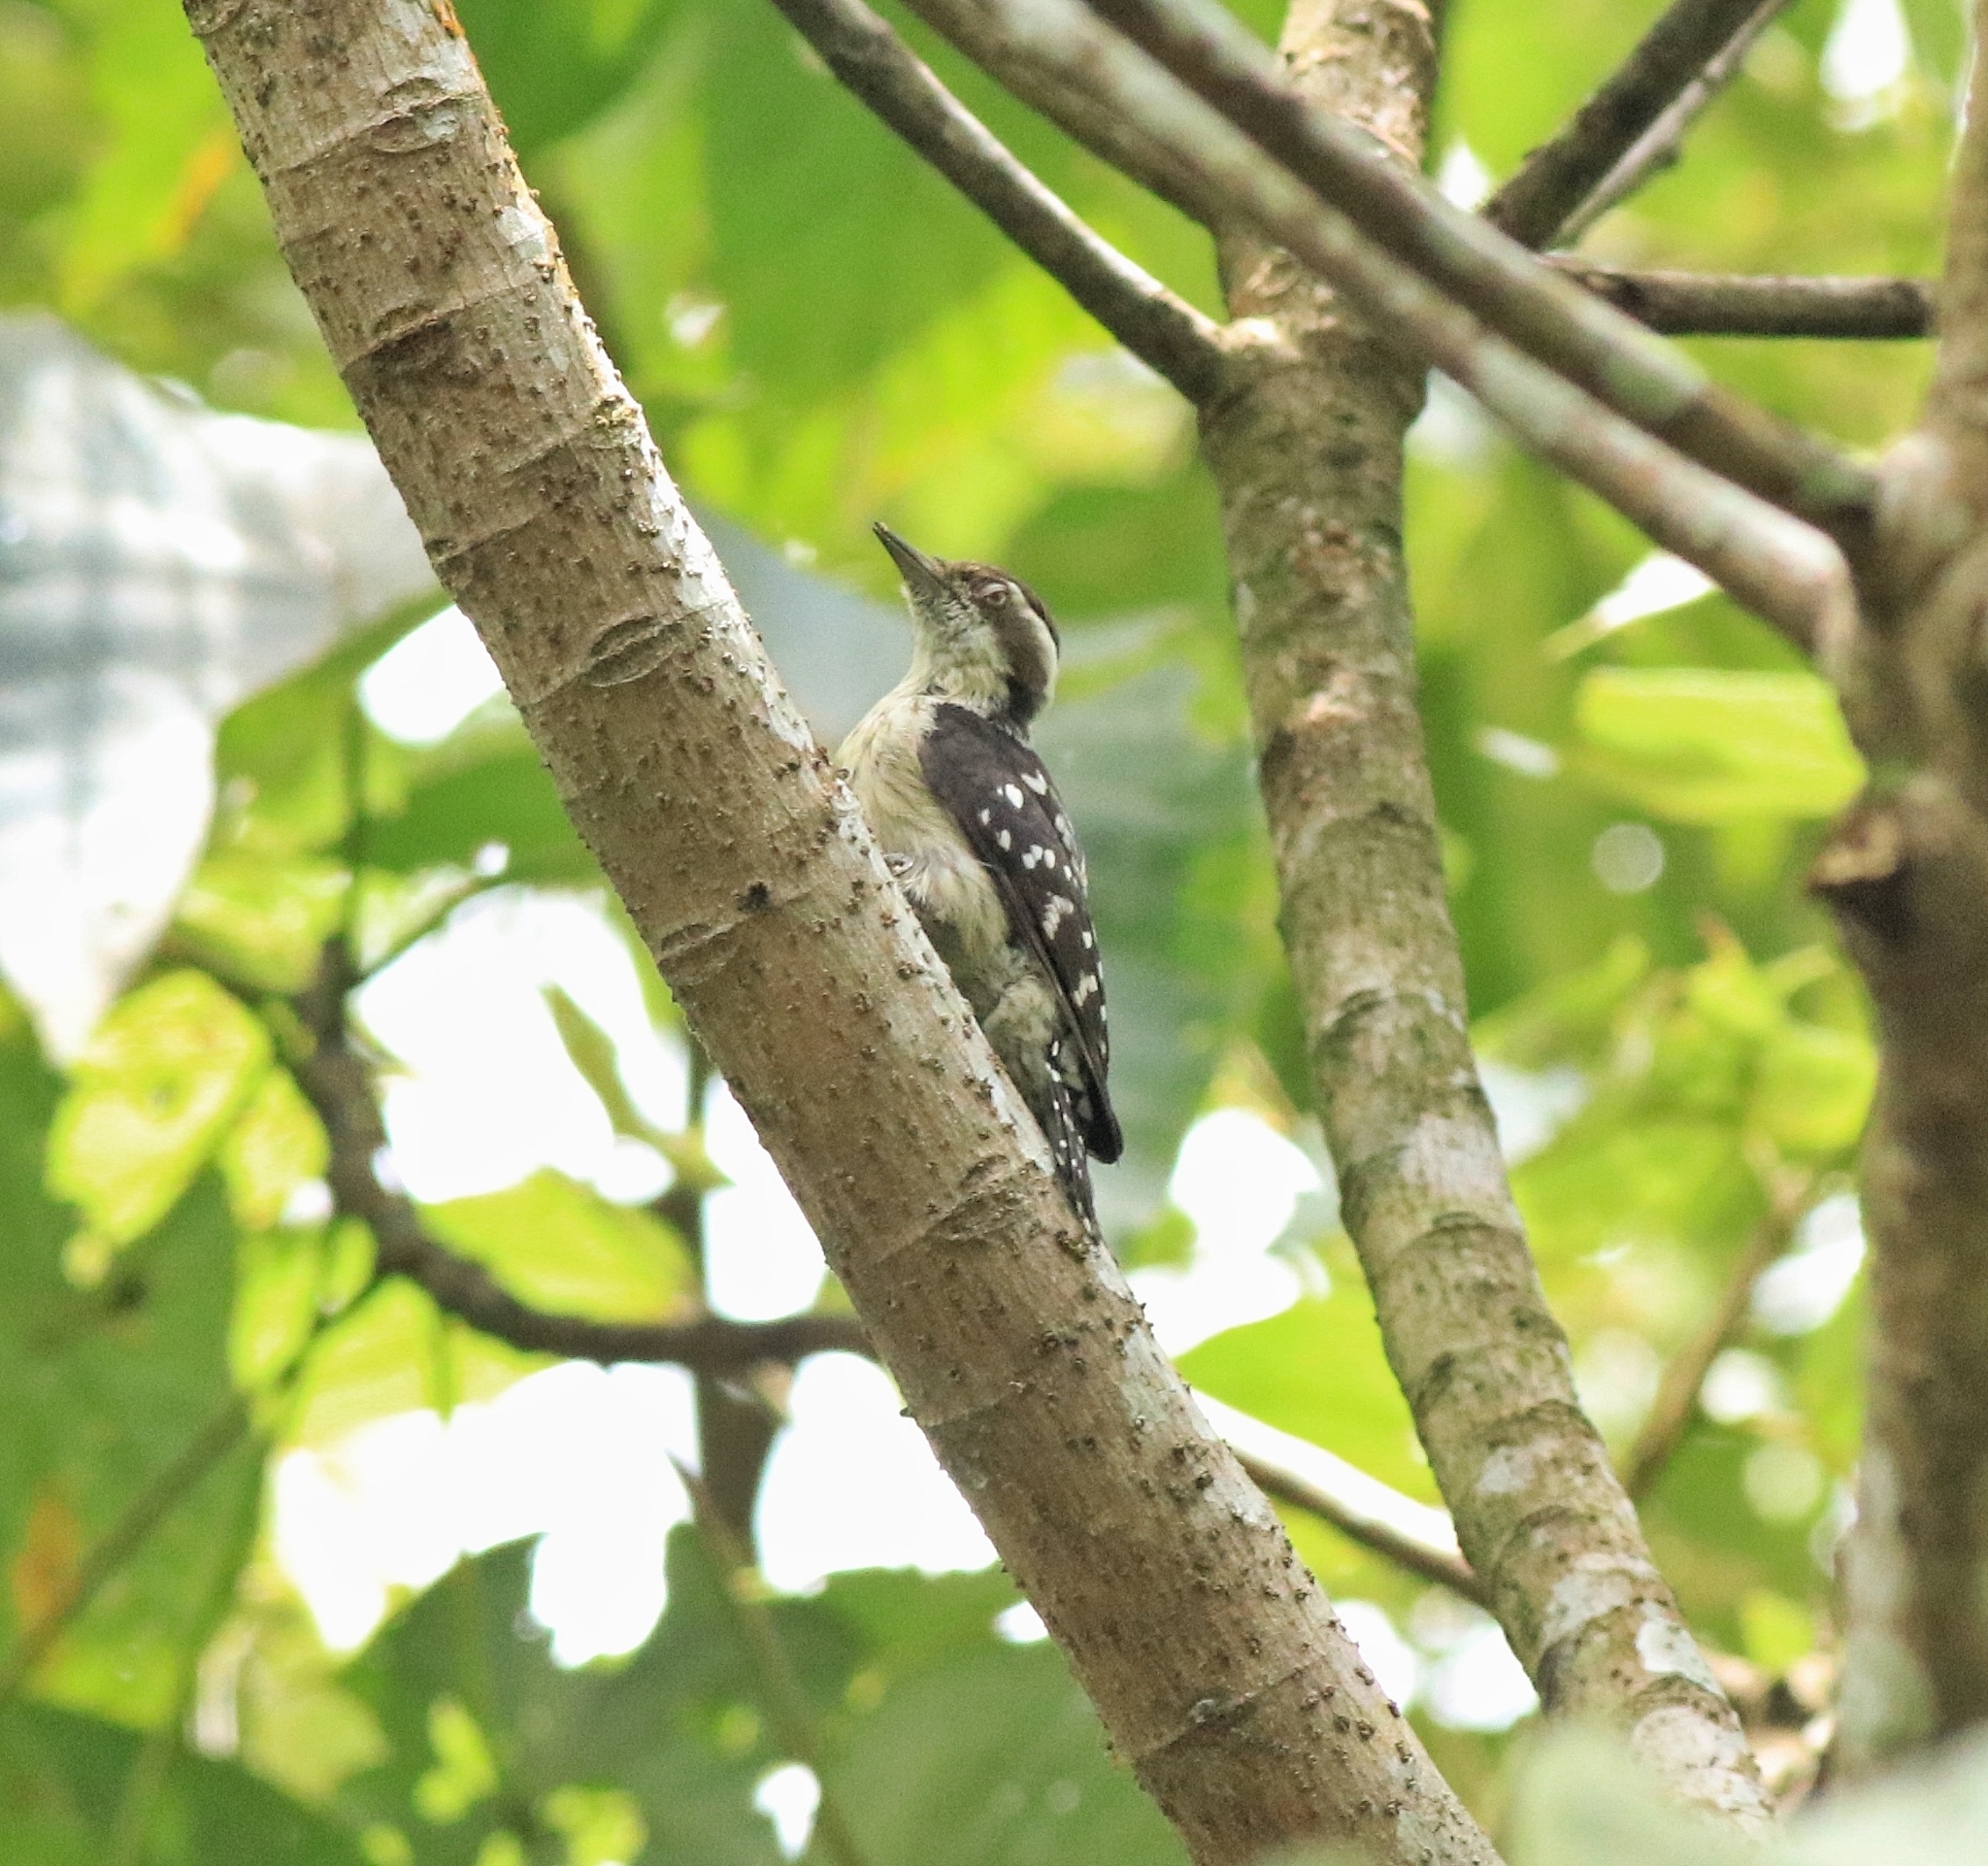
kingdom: Animalia
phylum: Chordata
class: Aves
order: Piciformes
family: Picidae
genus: Yungipicus
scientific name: Yungipicus nanus
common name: Brown-capped pygmy woodpecker
